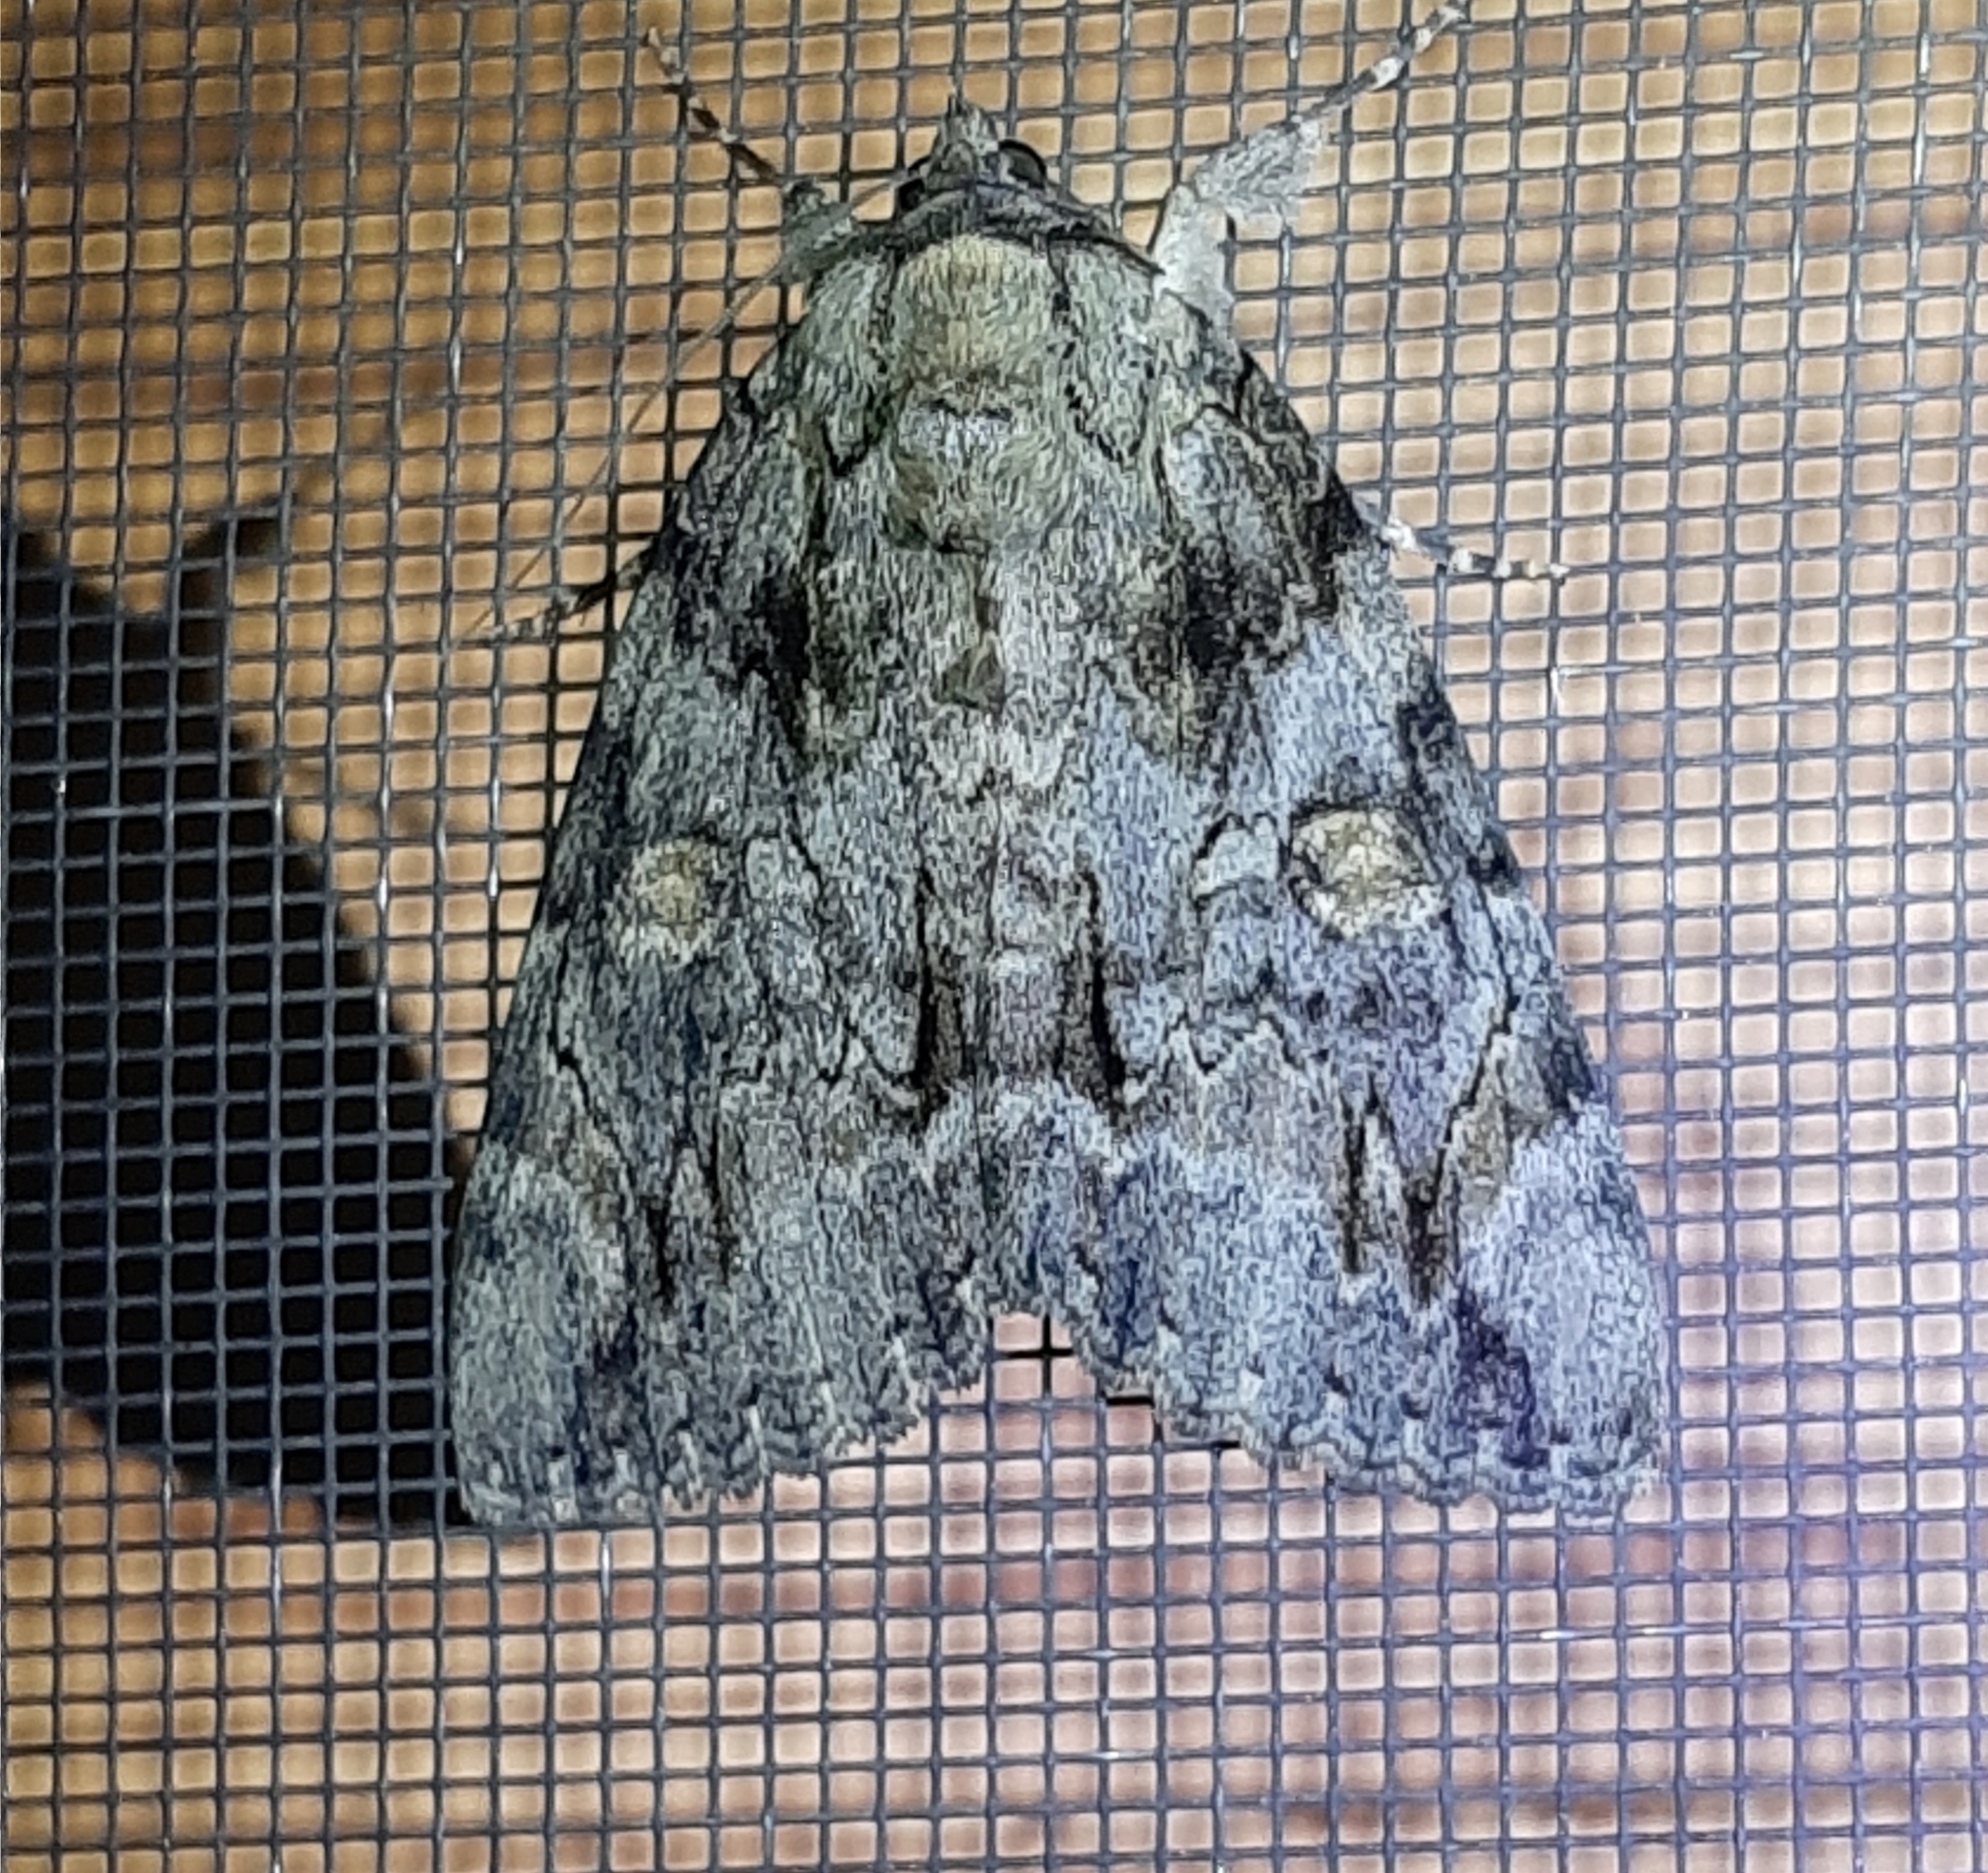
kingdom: Animalia
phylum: Arthropoda
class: Insecta
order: Lepidoptera
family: Erebidae
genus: Catocala
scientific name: Catocala neogama
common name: Bride underwing
